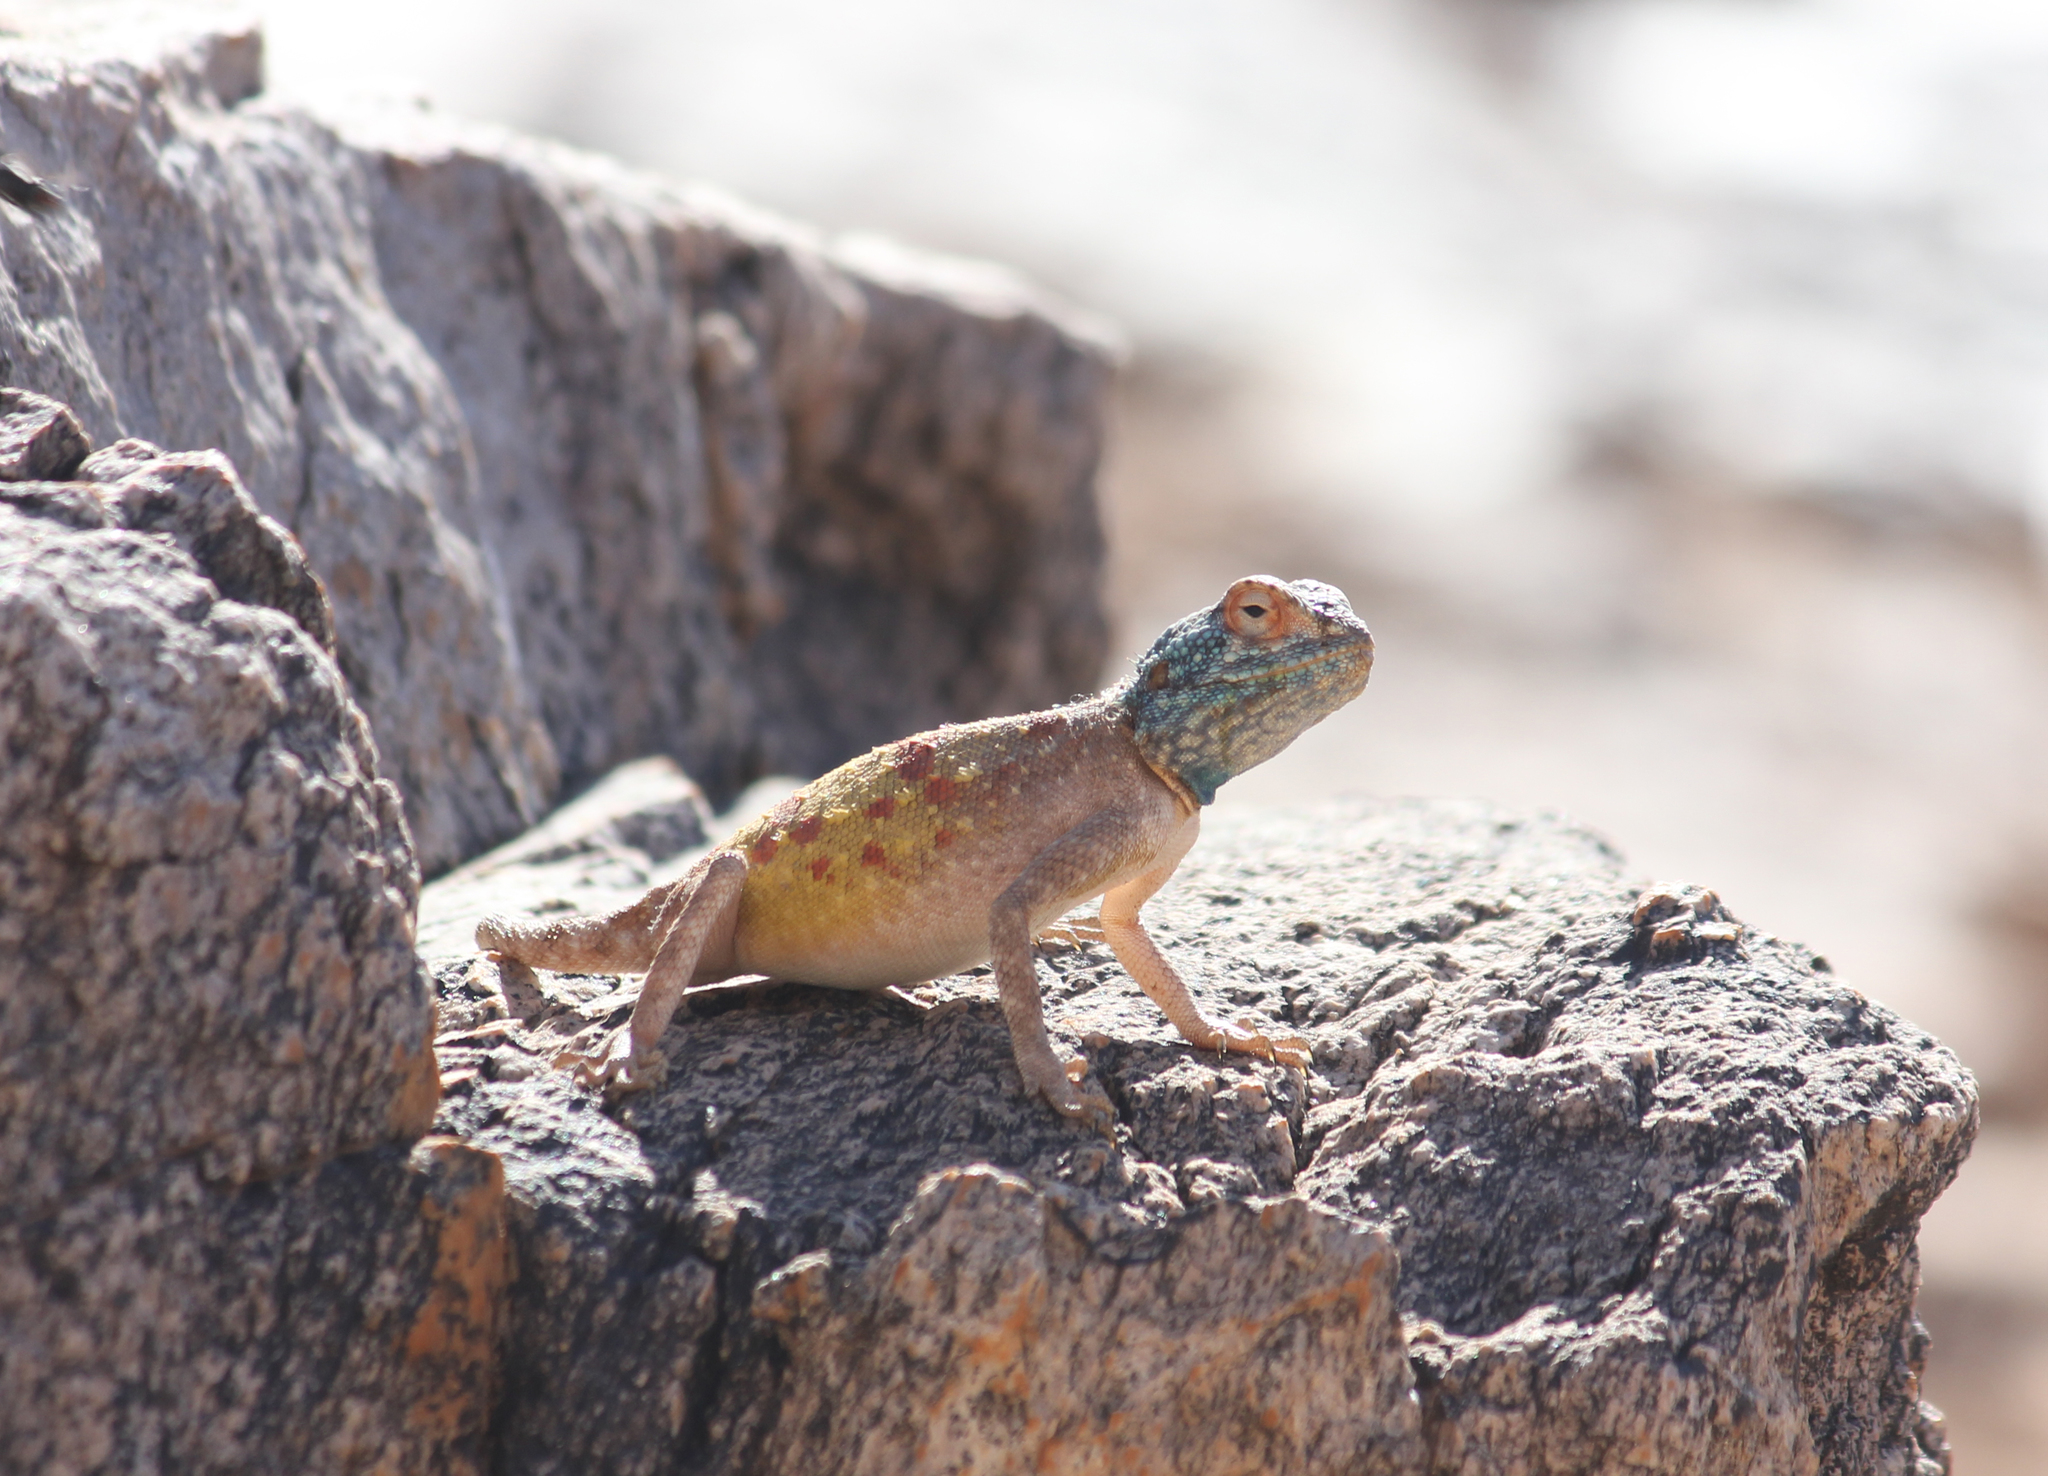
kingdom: Animalia
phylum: Chordata
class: Squamata
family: Agamidae
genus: Agama
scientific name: Agama anchietae
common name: Anchieta's agama
